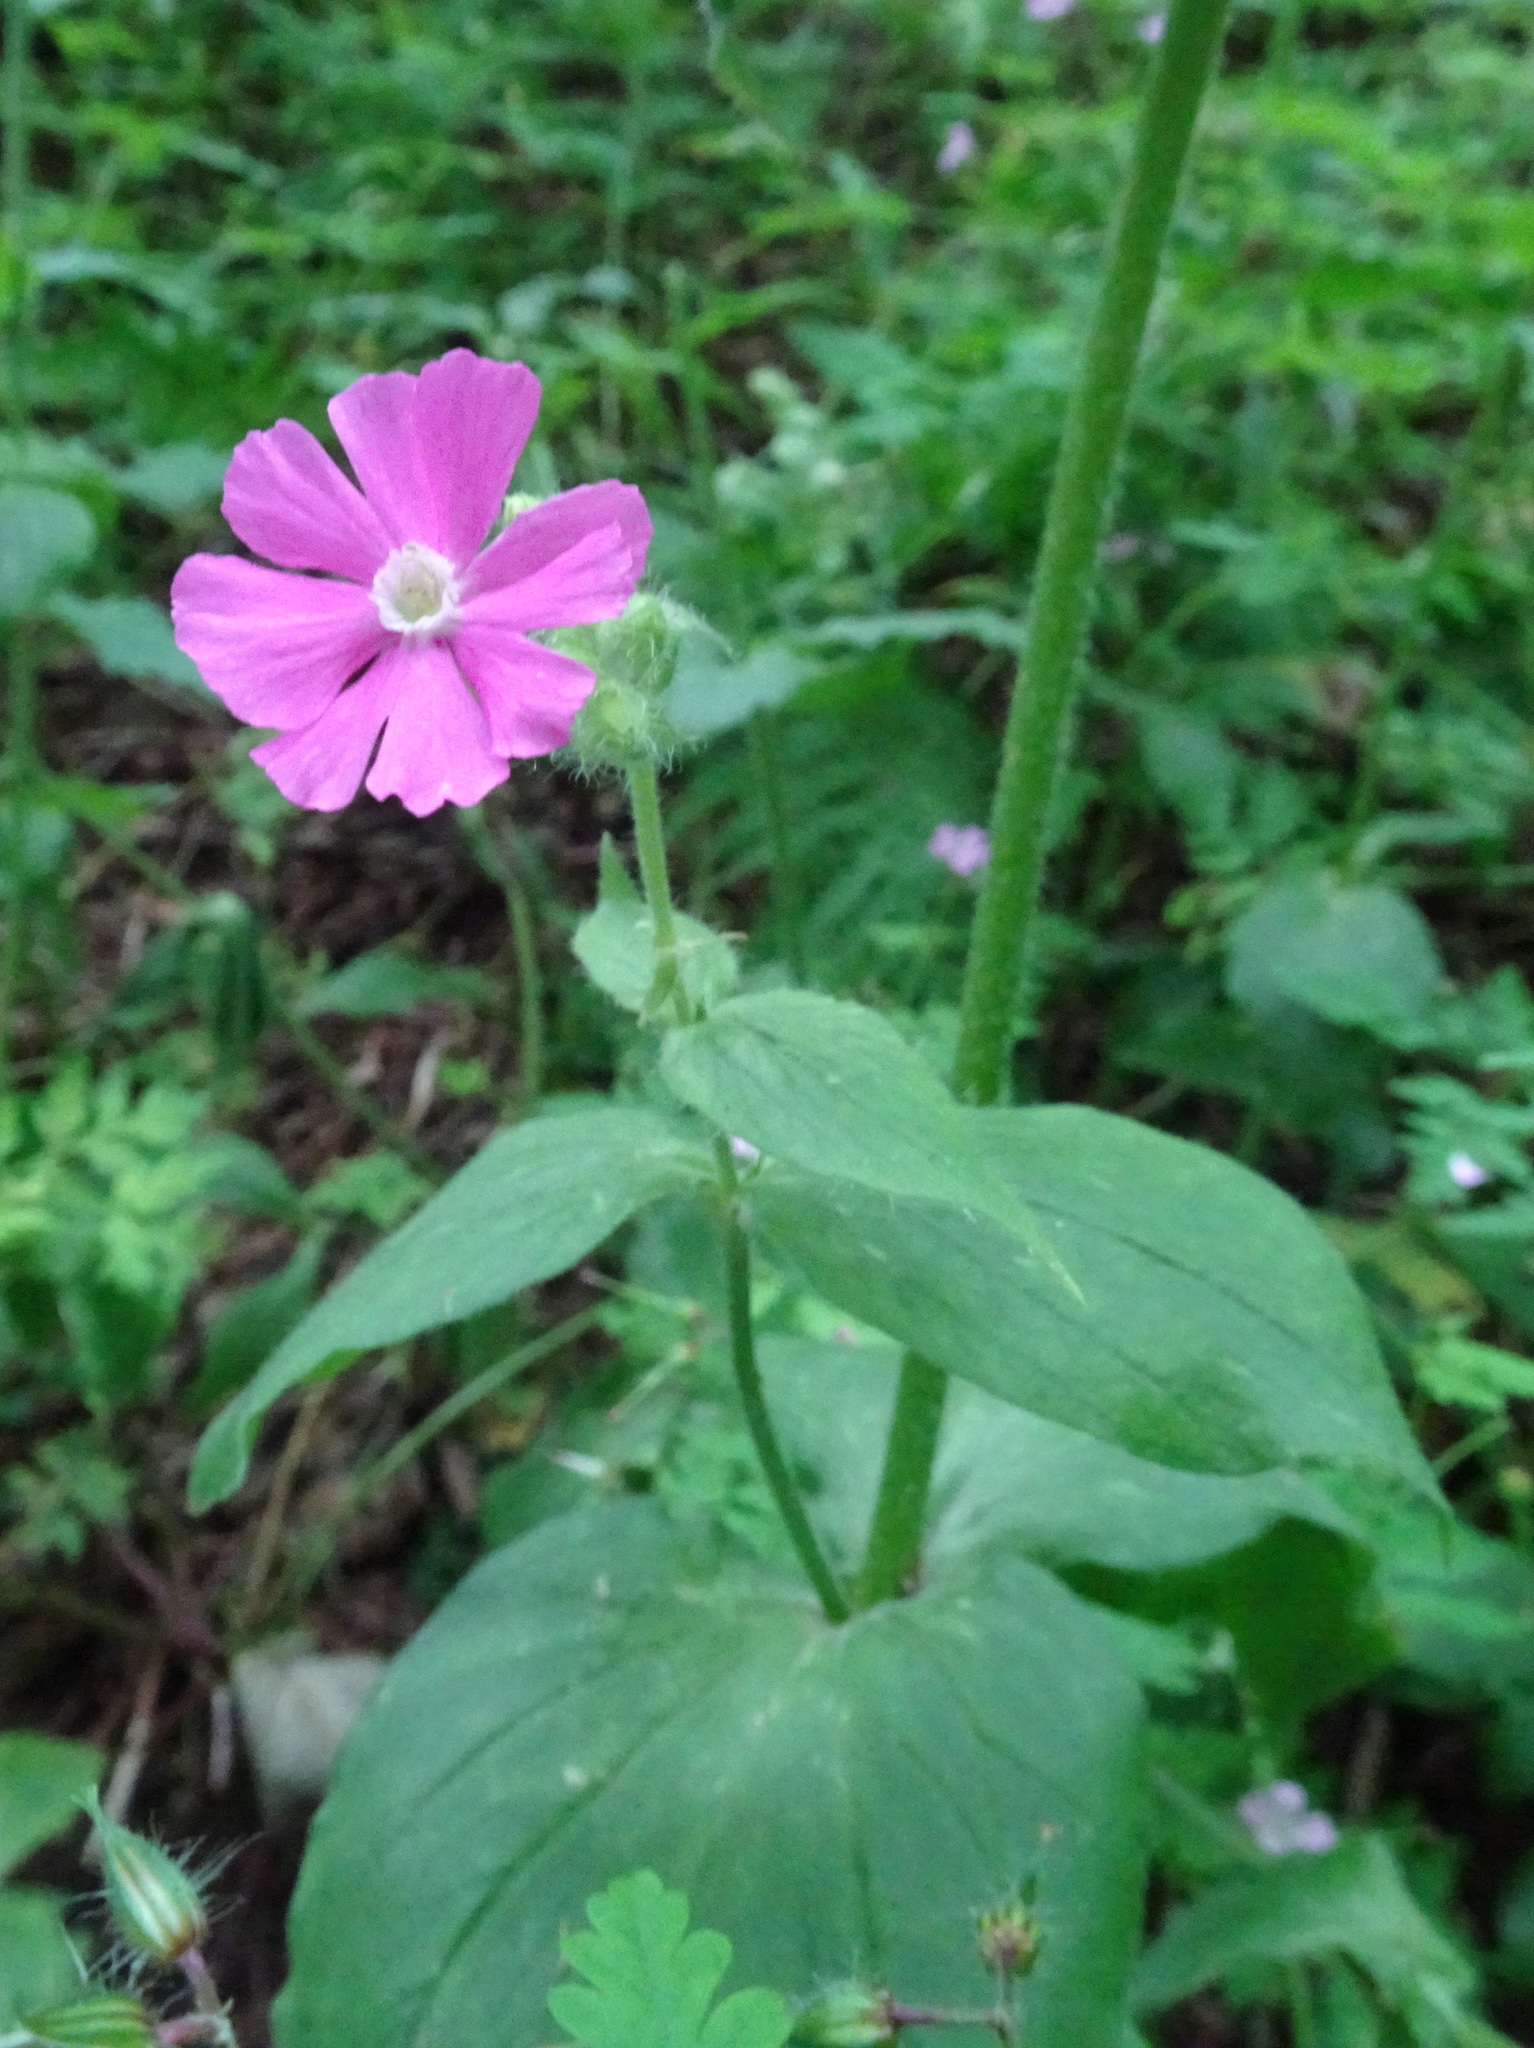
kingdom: Plantae
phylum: Tracheophyta
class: Magnoliopsida
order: Caryophyllales
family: Caryophyllaceae
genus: Silene
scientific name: Silene dioica
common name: Red campion
